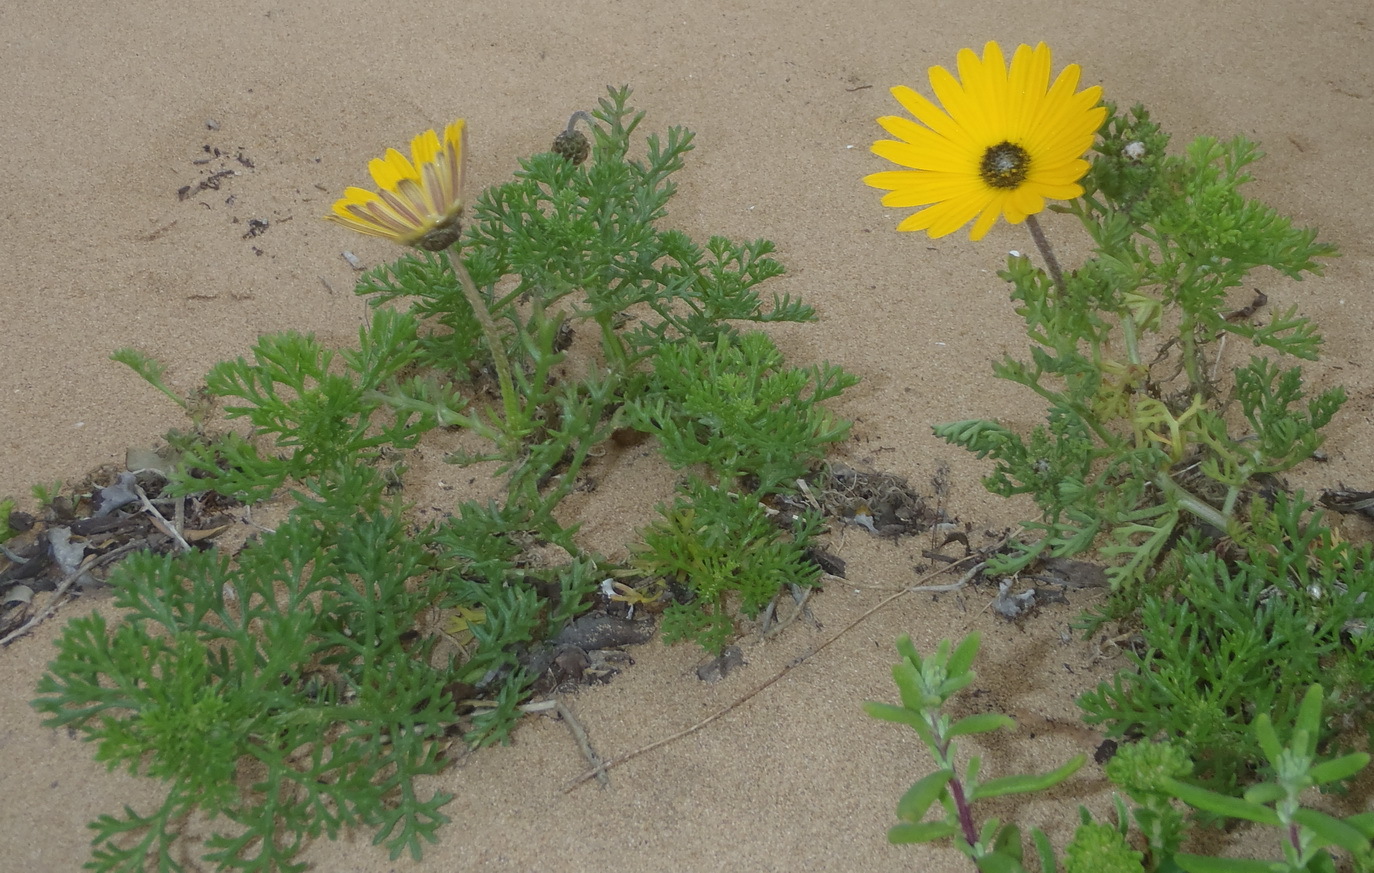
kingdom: Plantae
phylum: Tracheophyta
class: Magnoliopsida
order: Asterales
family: Asteraceae
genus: Ursinia
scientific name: Ursinia chrysanthemoides
